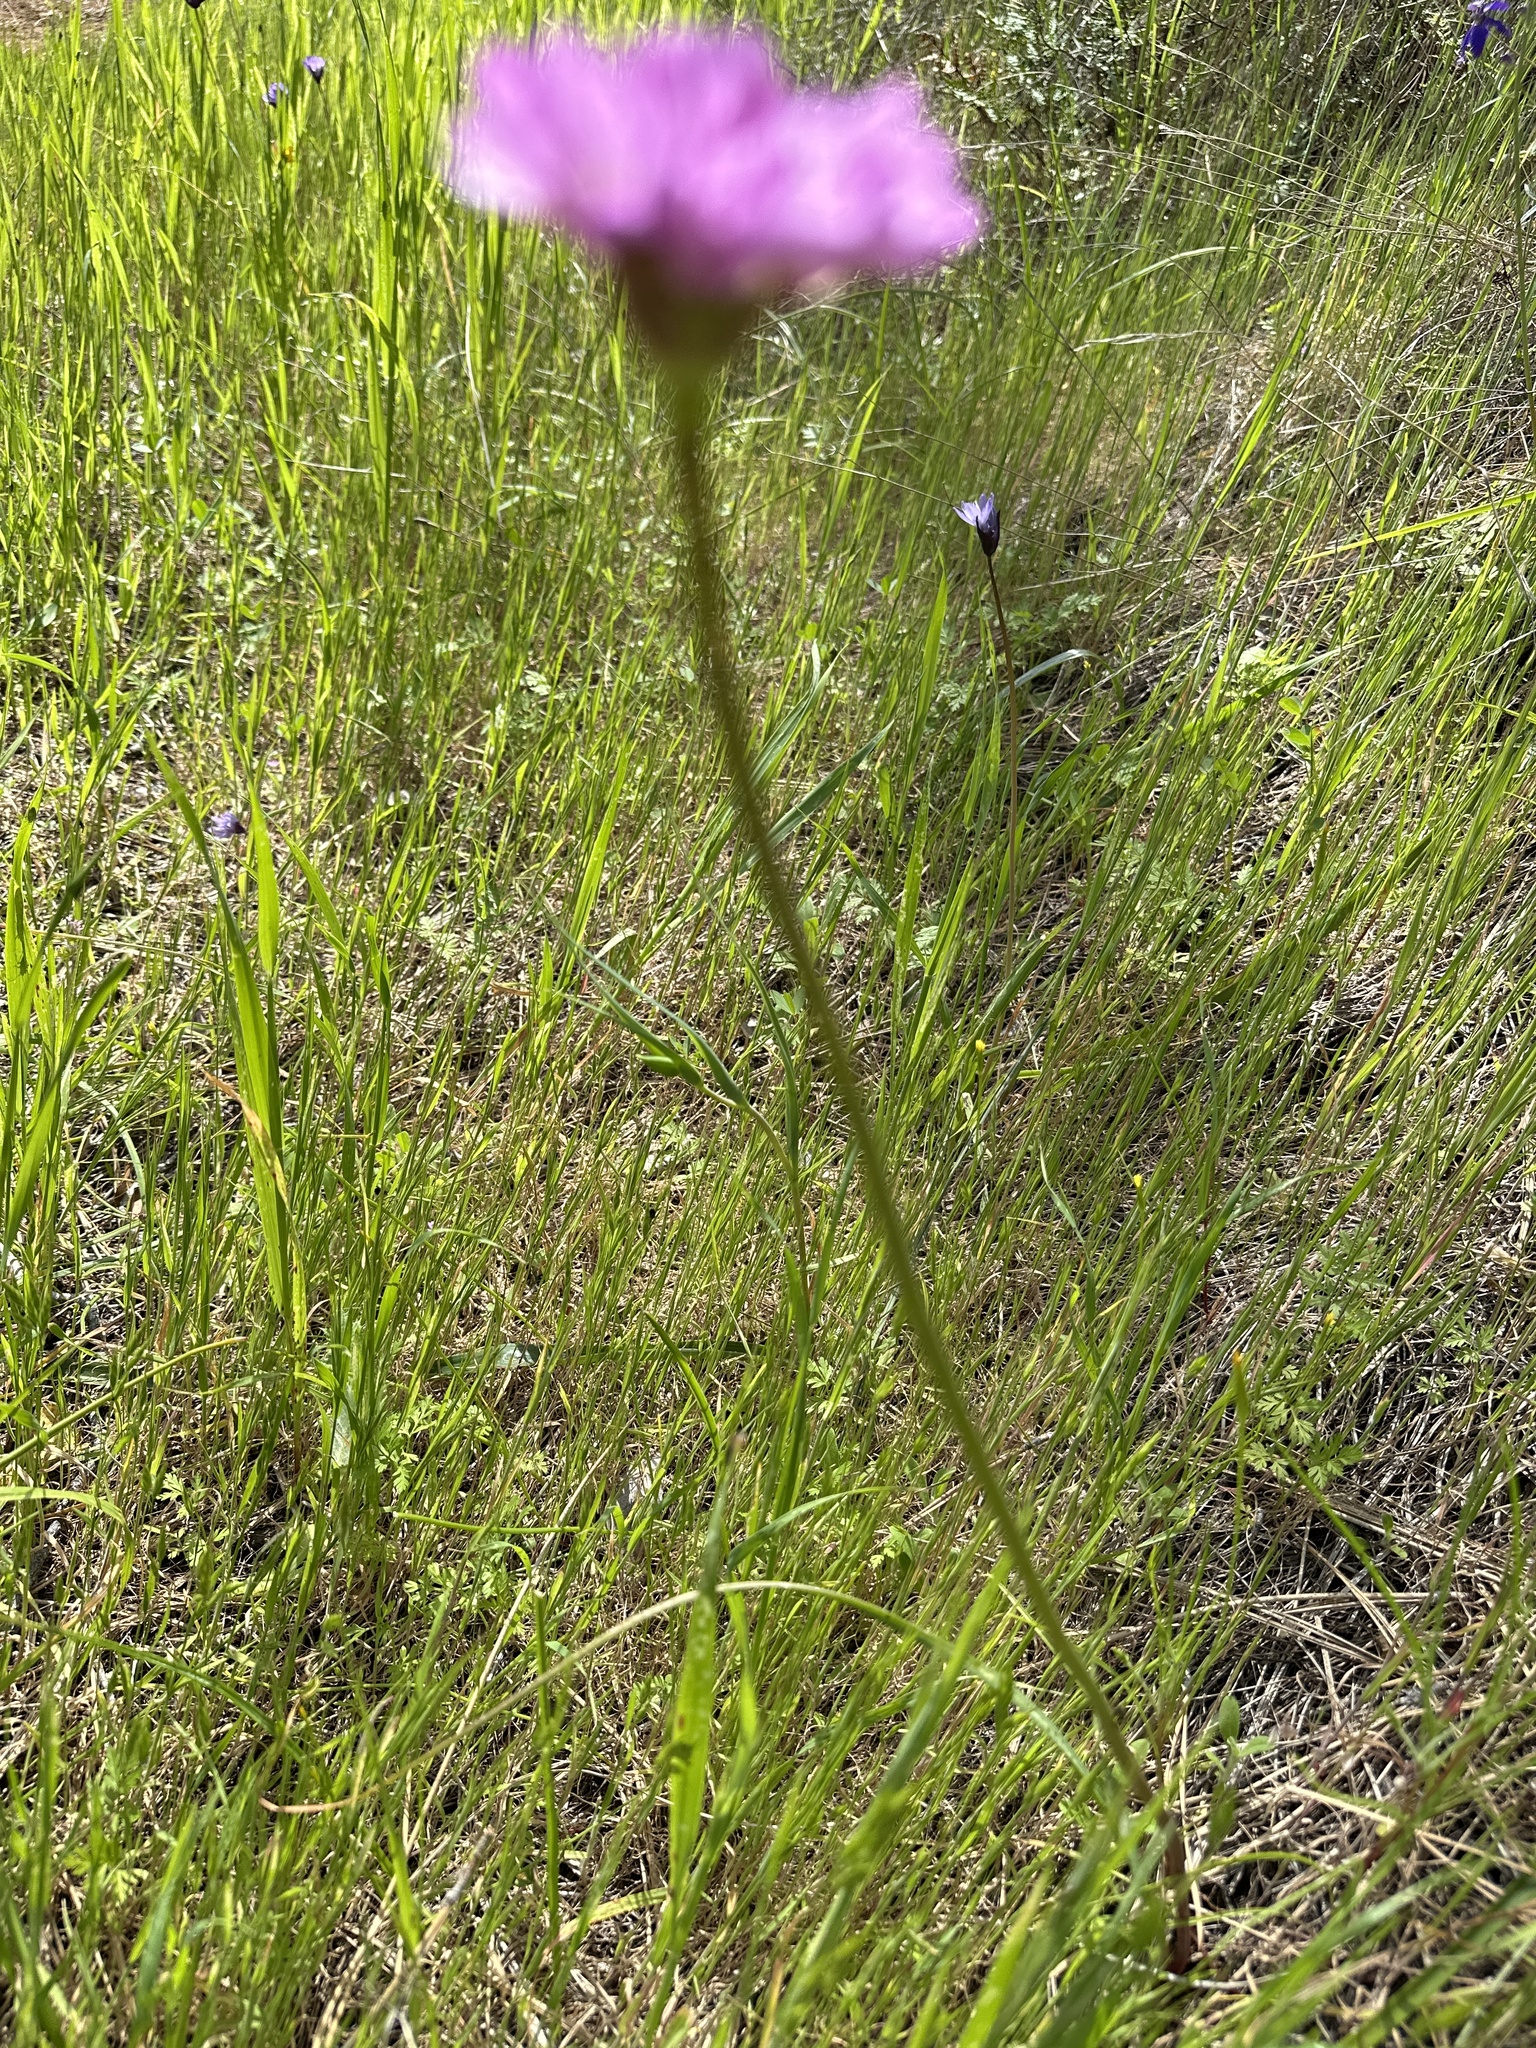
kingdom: Plantae
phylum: Tracheophyta
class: Liliopsida
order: Asparagales
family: Amaryllidaceae
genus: Allium
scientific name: Allium serra
